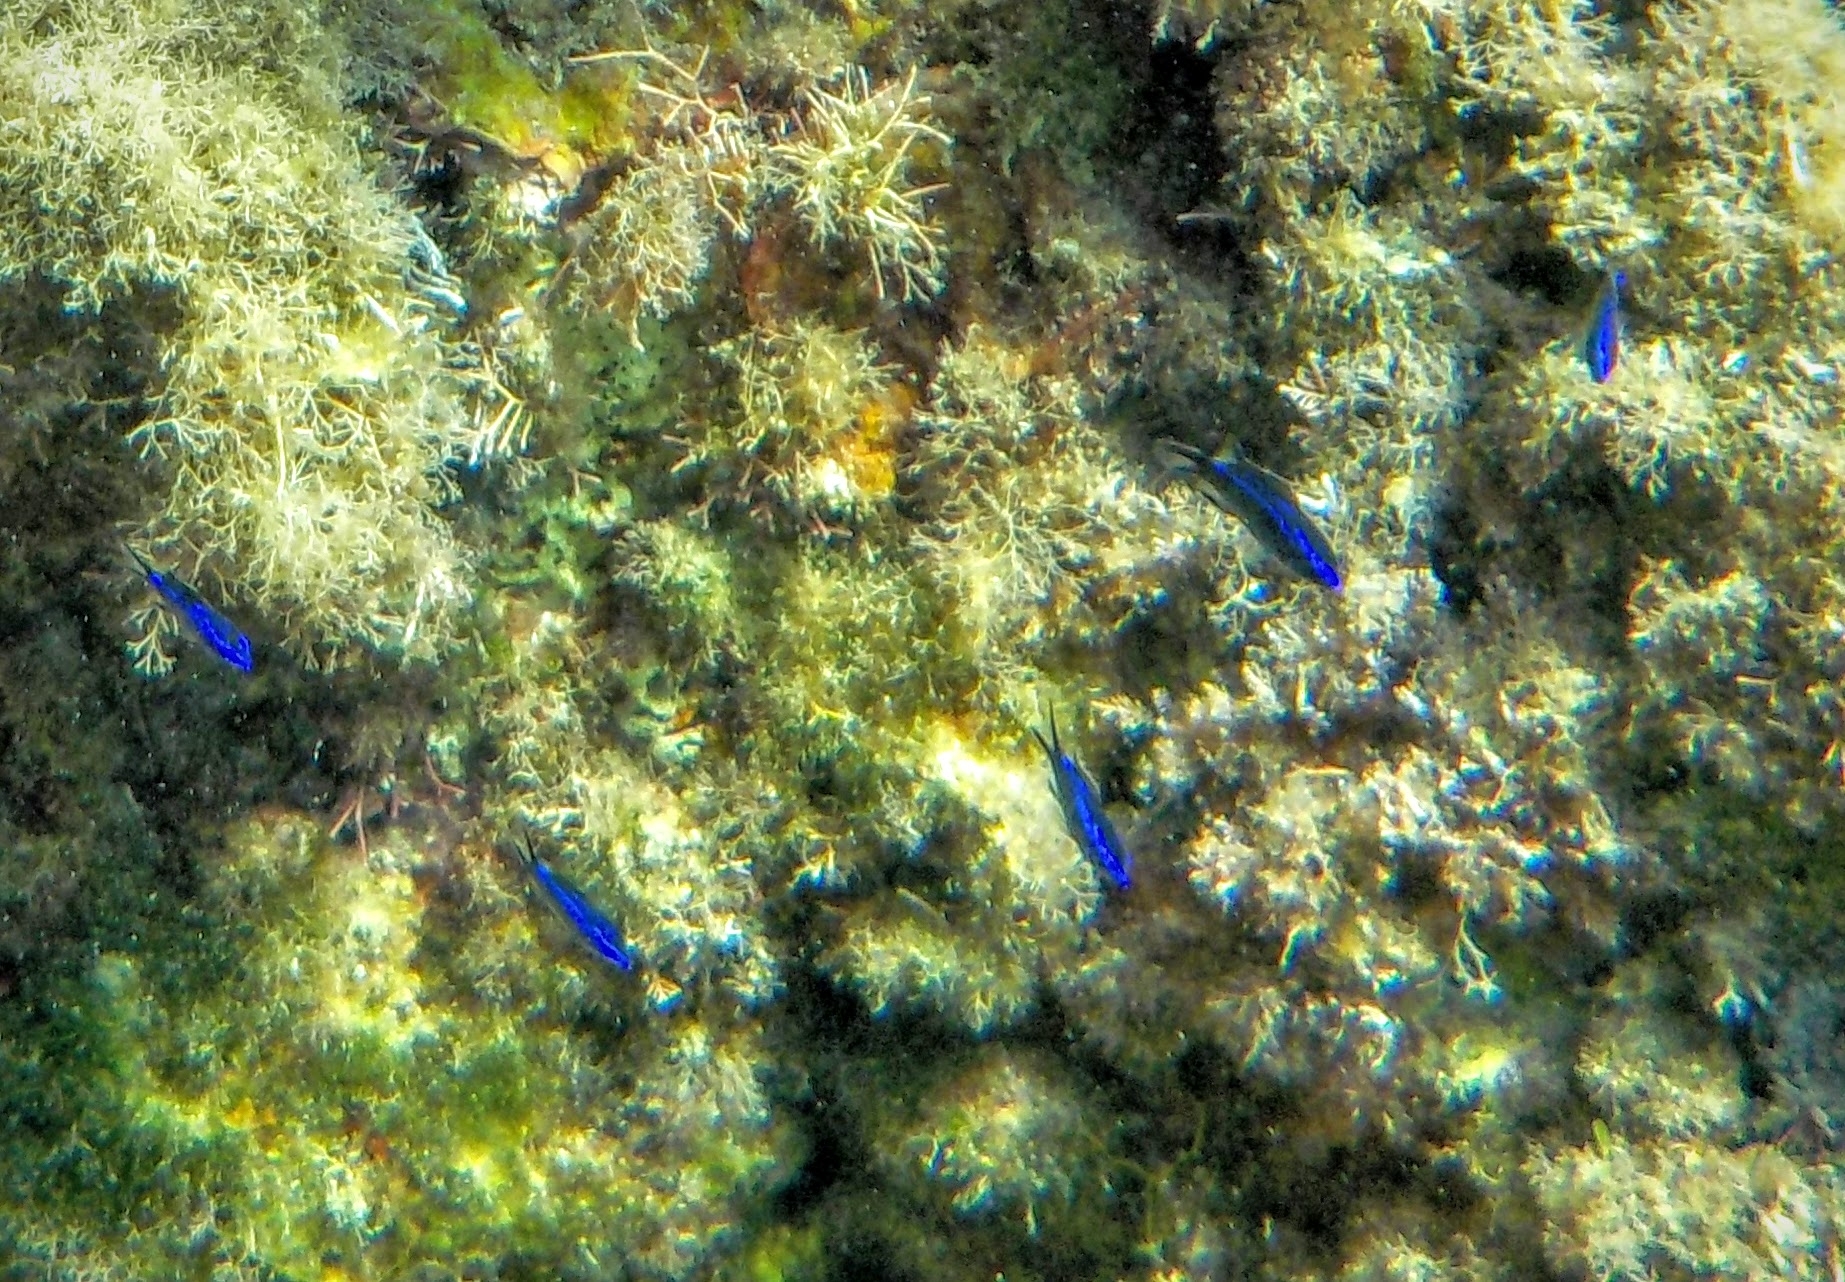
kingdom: Animalia
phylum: Chordata
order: Perciformes
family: Pomacentridae
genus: Chromis
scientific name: Chromis chromis
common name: Damselfish
